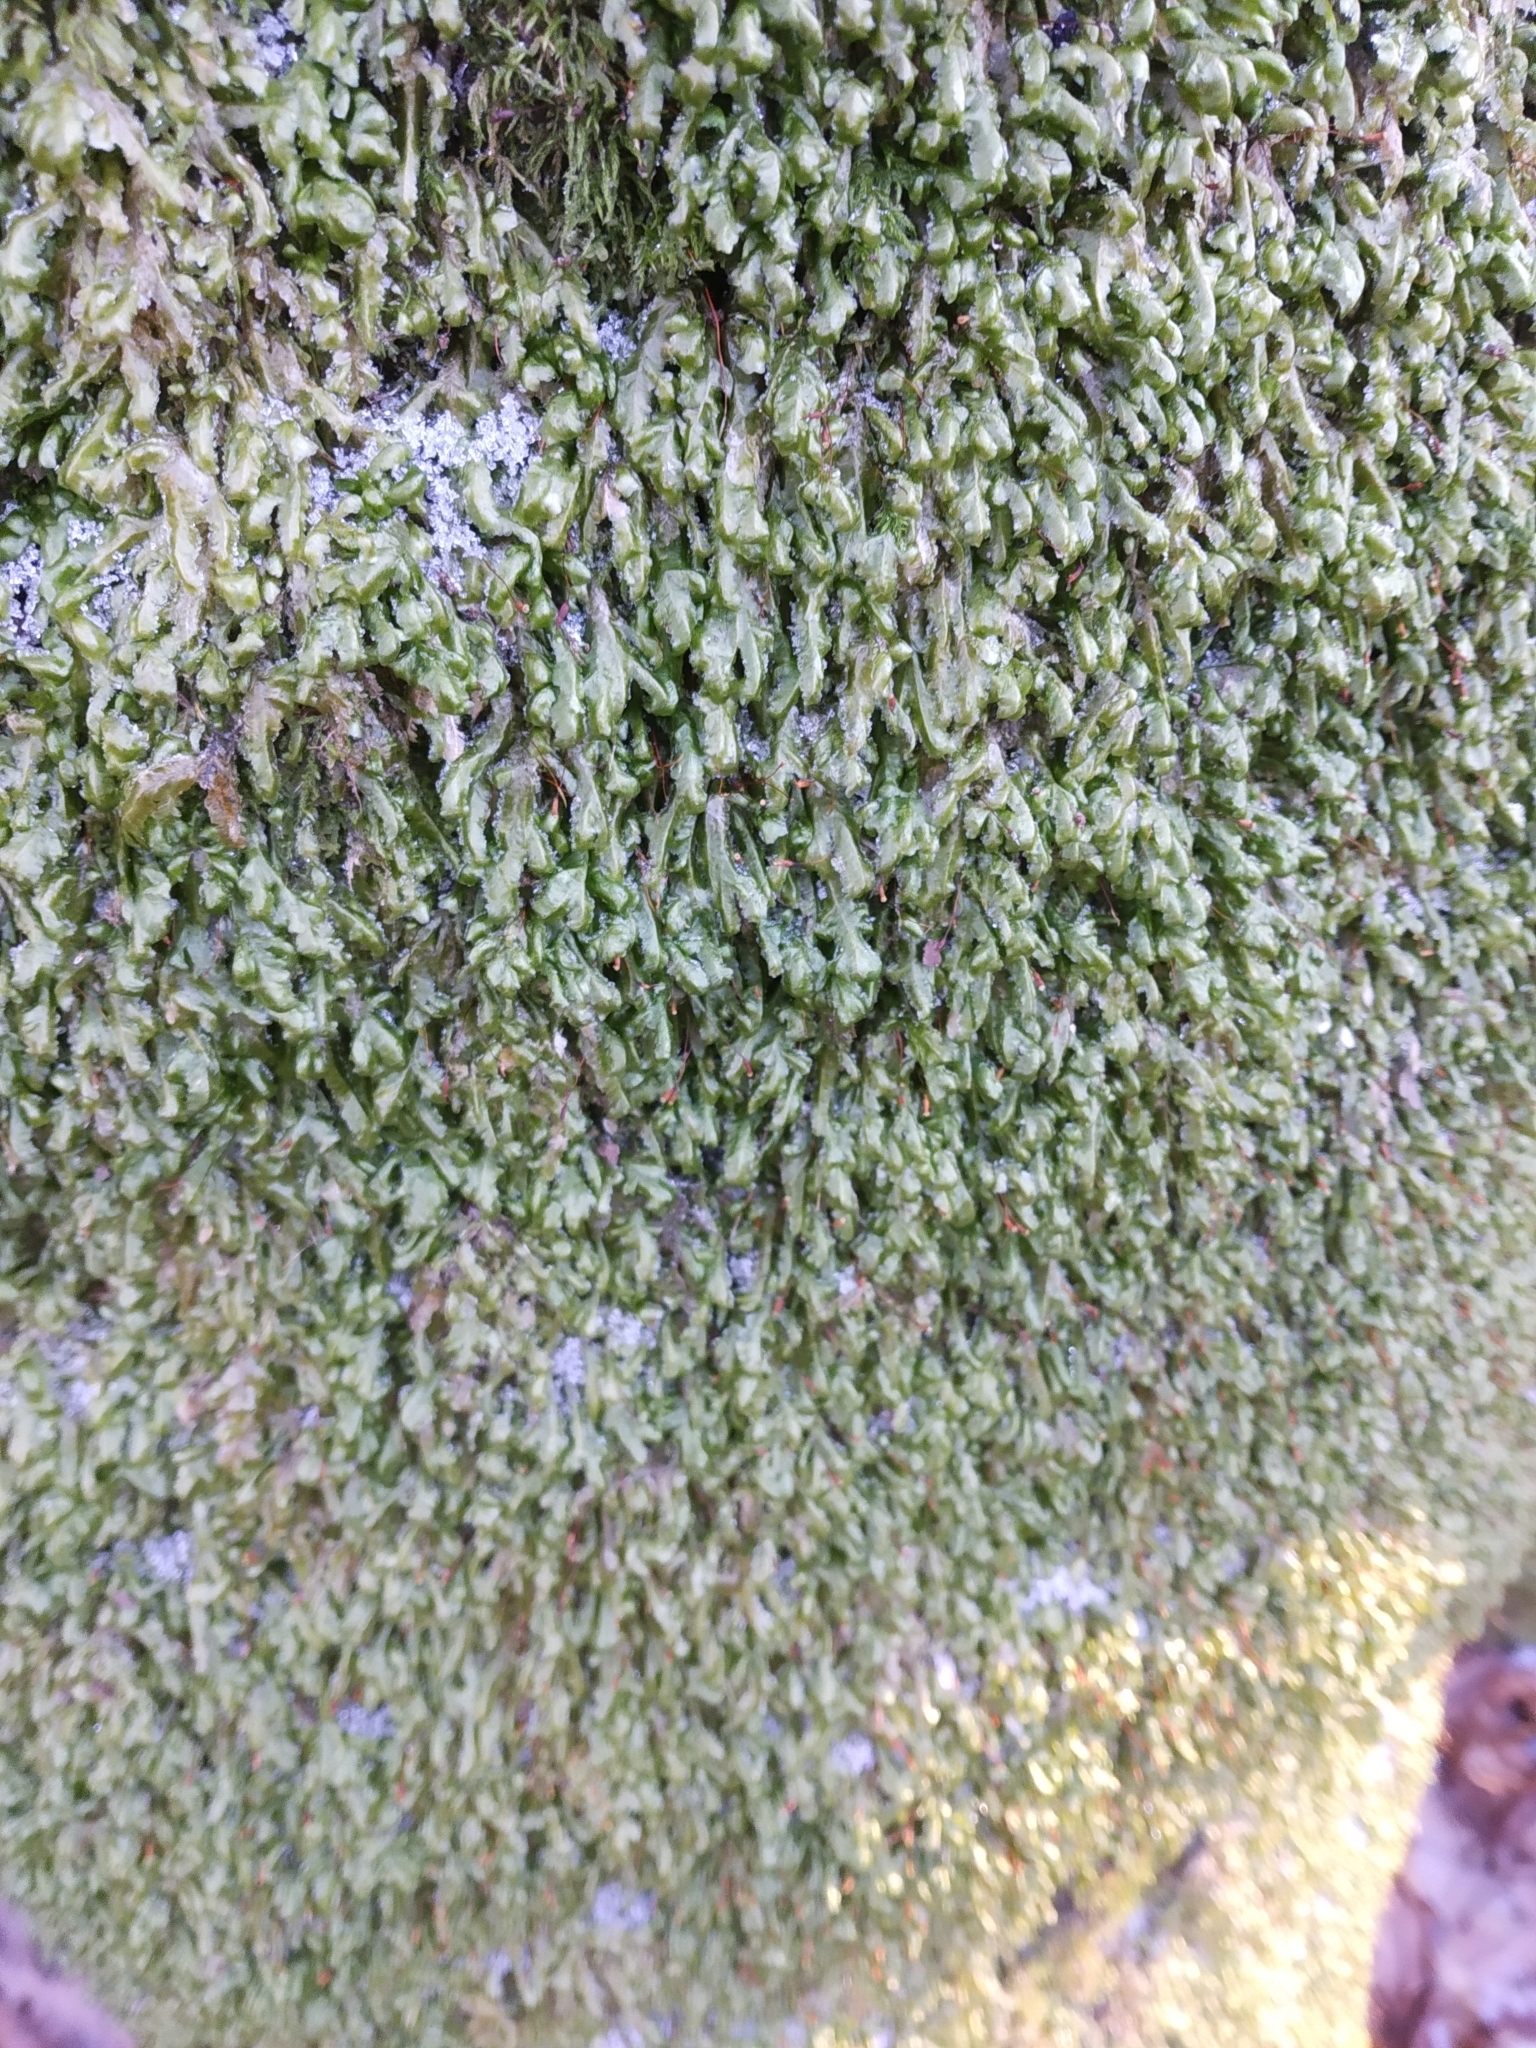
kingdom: Plantae
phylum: Bryophyta
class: Bryopsida
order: Hypnales
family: Neckeraceae
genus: Homalia
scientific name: Homalia trichomanoides
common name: Lime homalia moss
